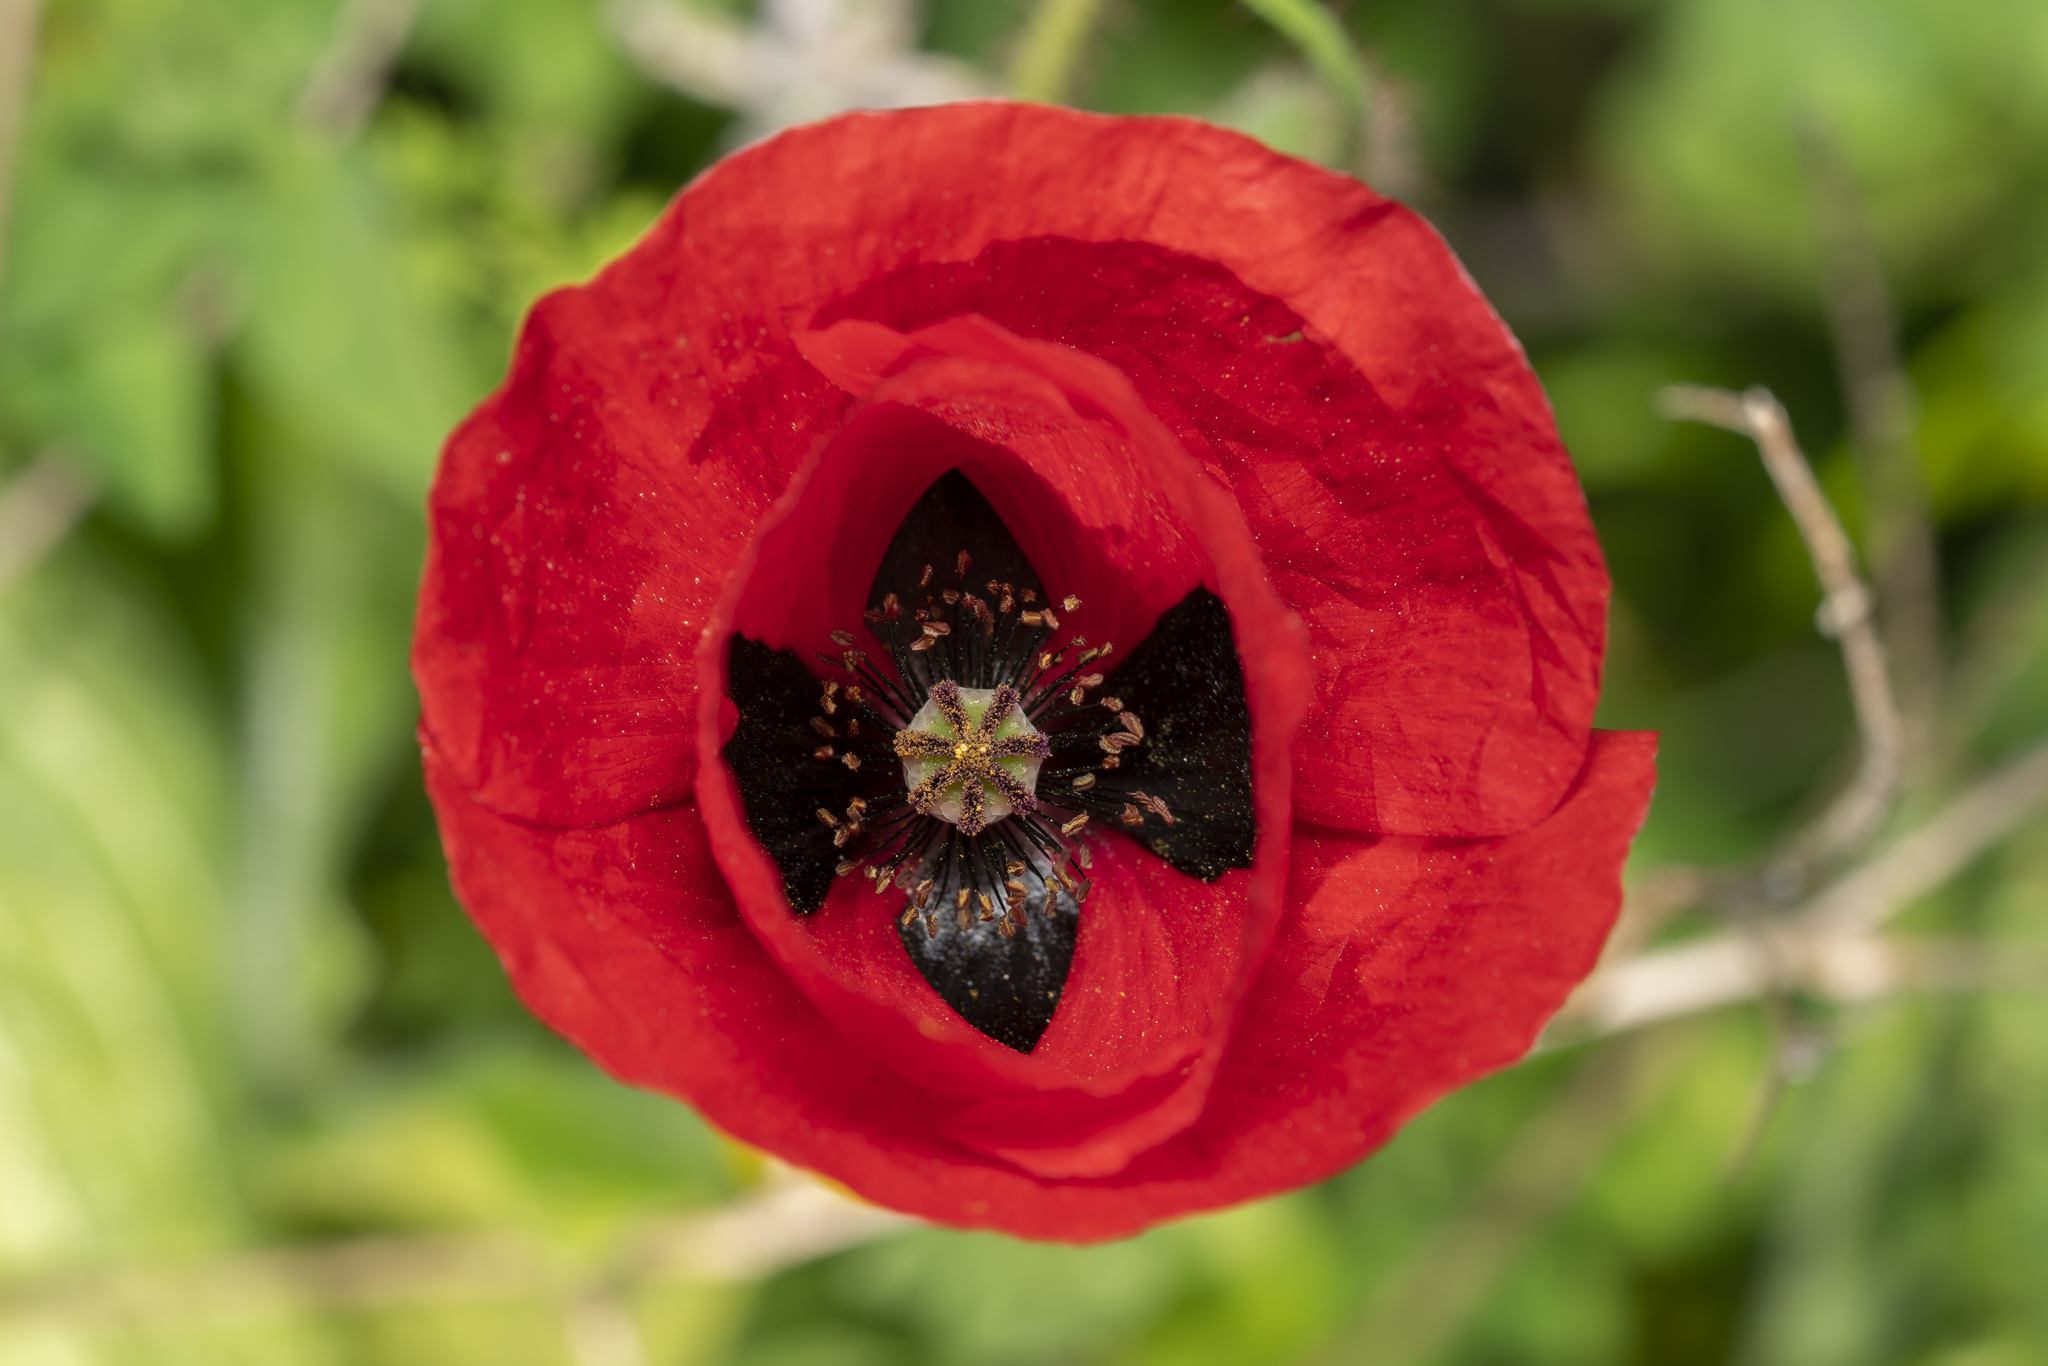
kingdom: Plantae
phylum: Tracheophyta
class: Magnoliopsida
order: Ranunculales
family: Papaveraceae
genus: Papaver
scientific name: Papaver rhoeas
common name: Corn poppy
